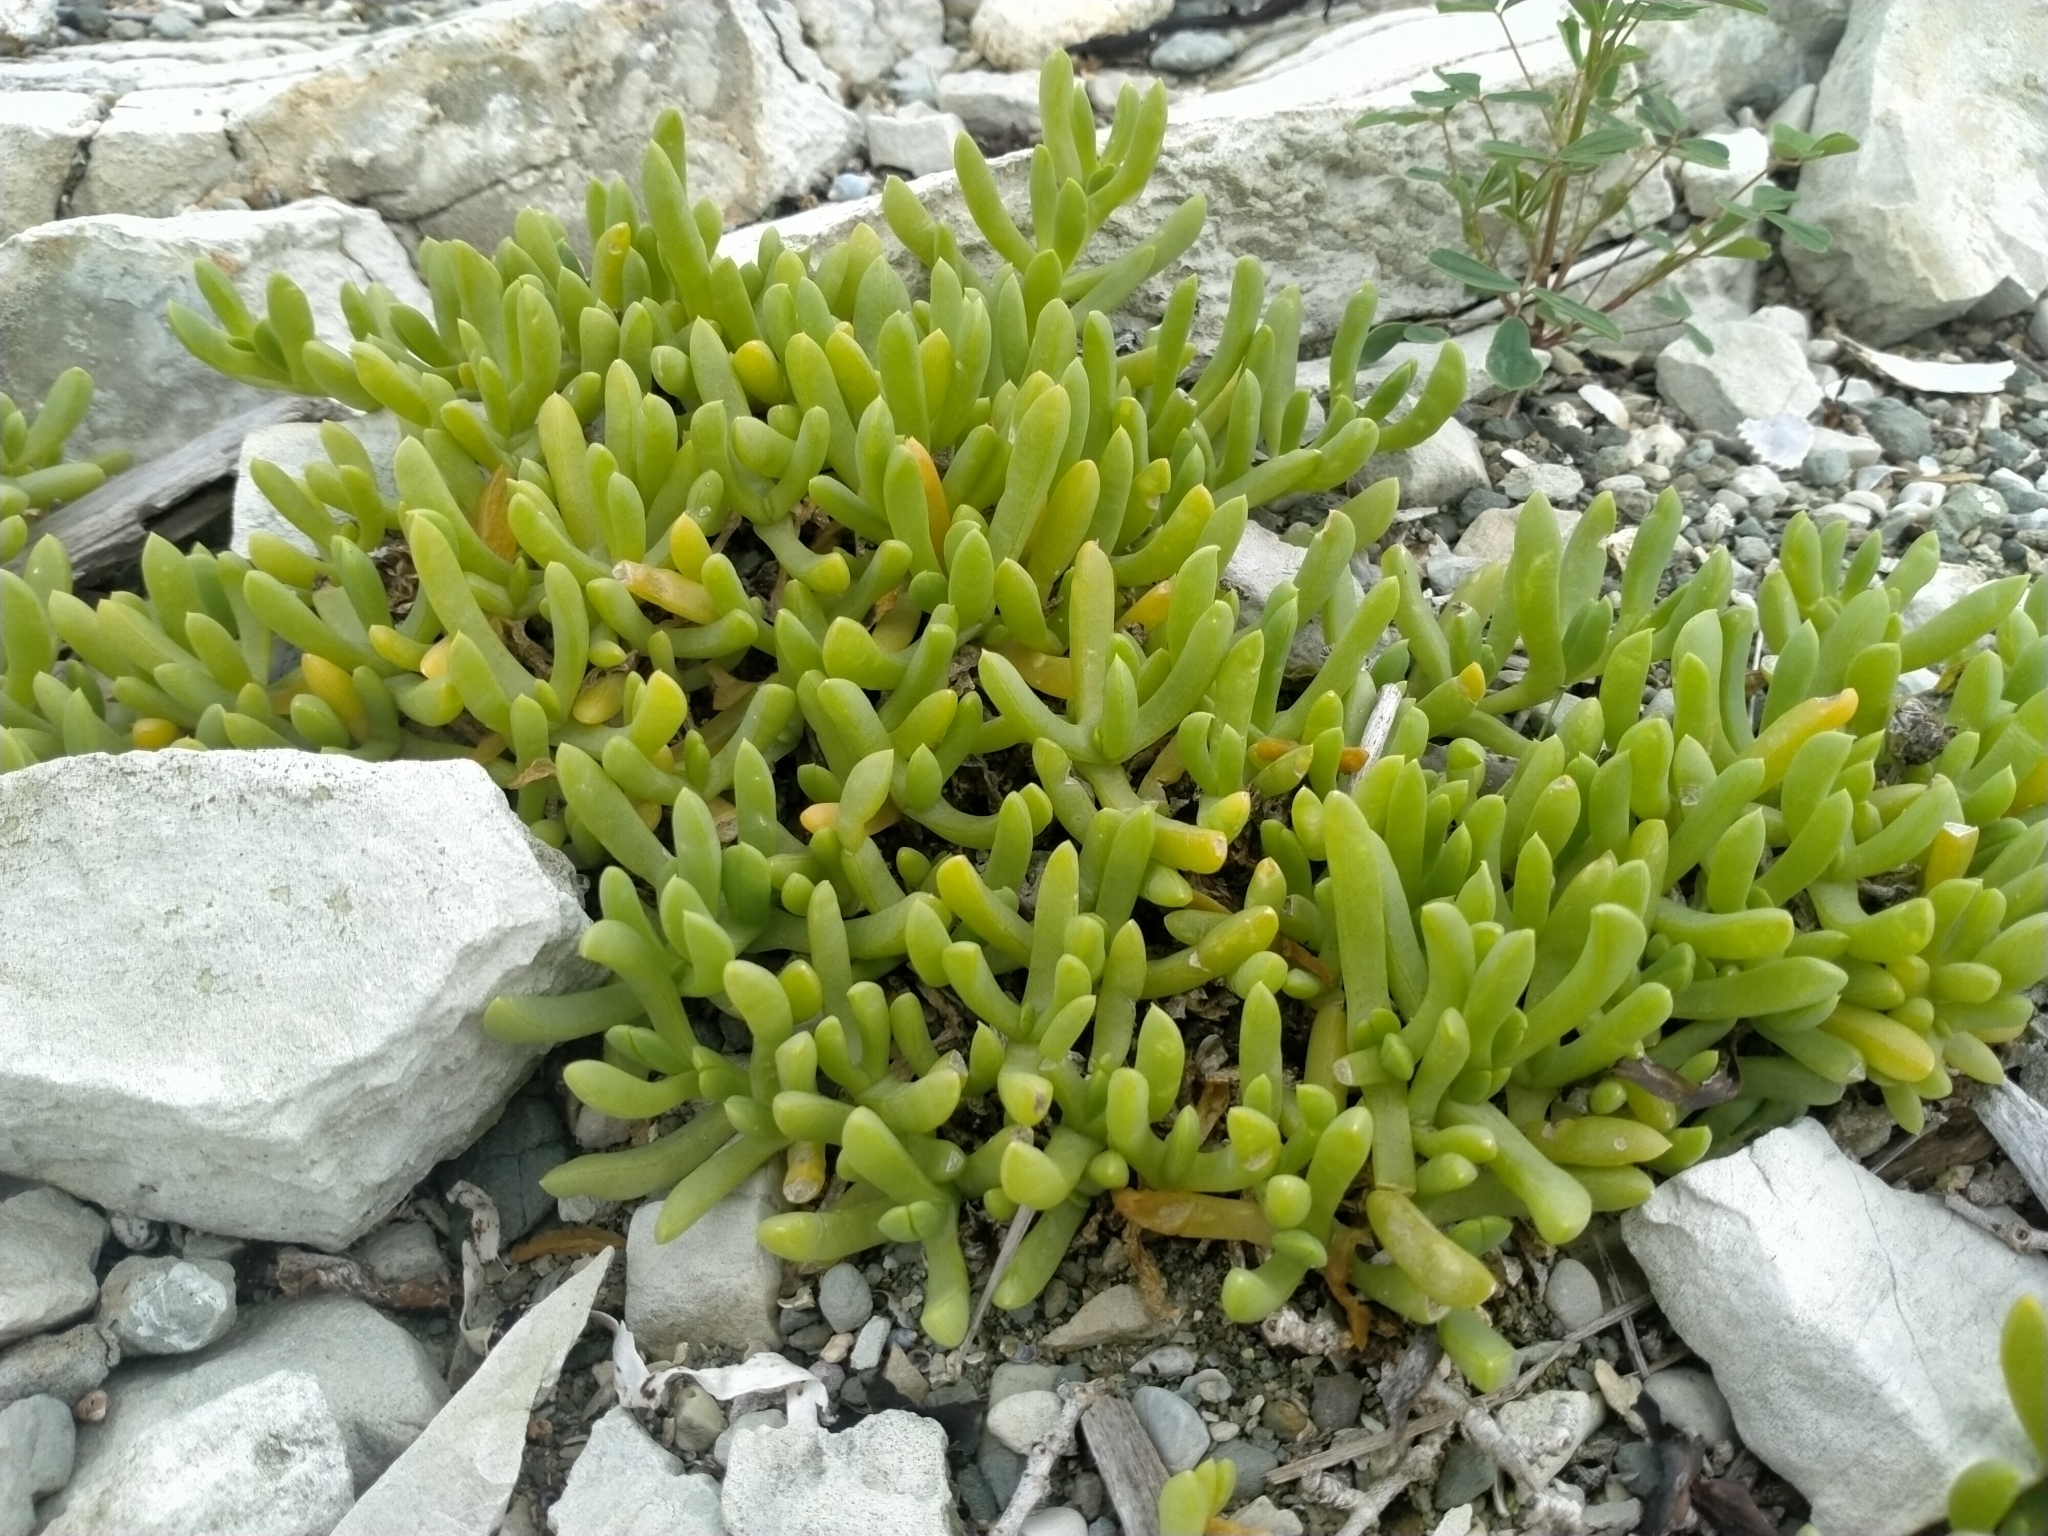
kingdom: Plantae
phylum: Tracheophyta
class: Magnoliopsida
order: Caryophyllales
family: Aizoaceae
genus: Disphyma
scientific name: Disphyma australe
